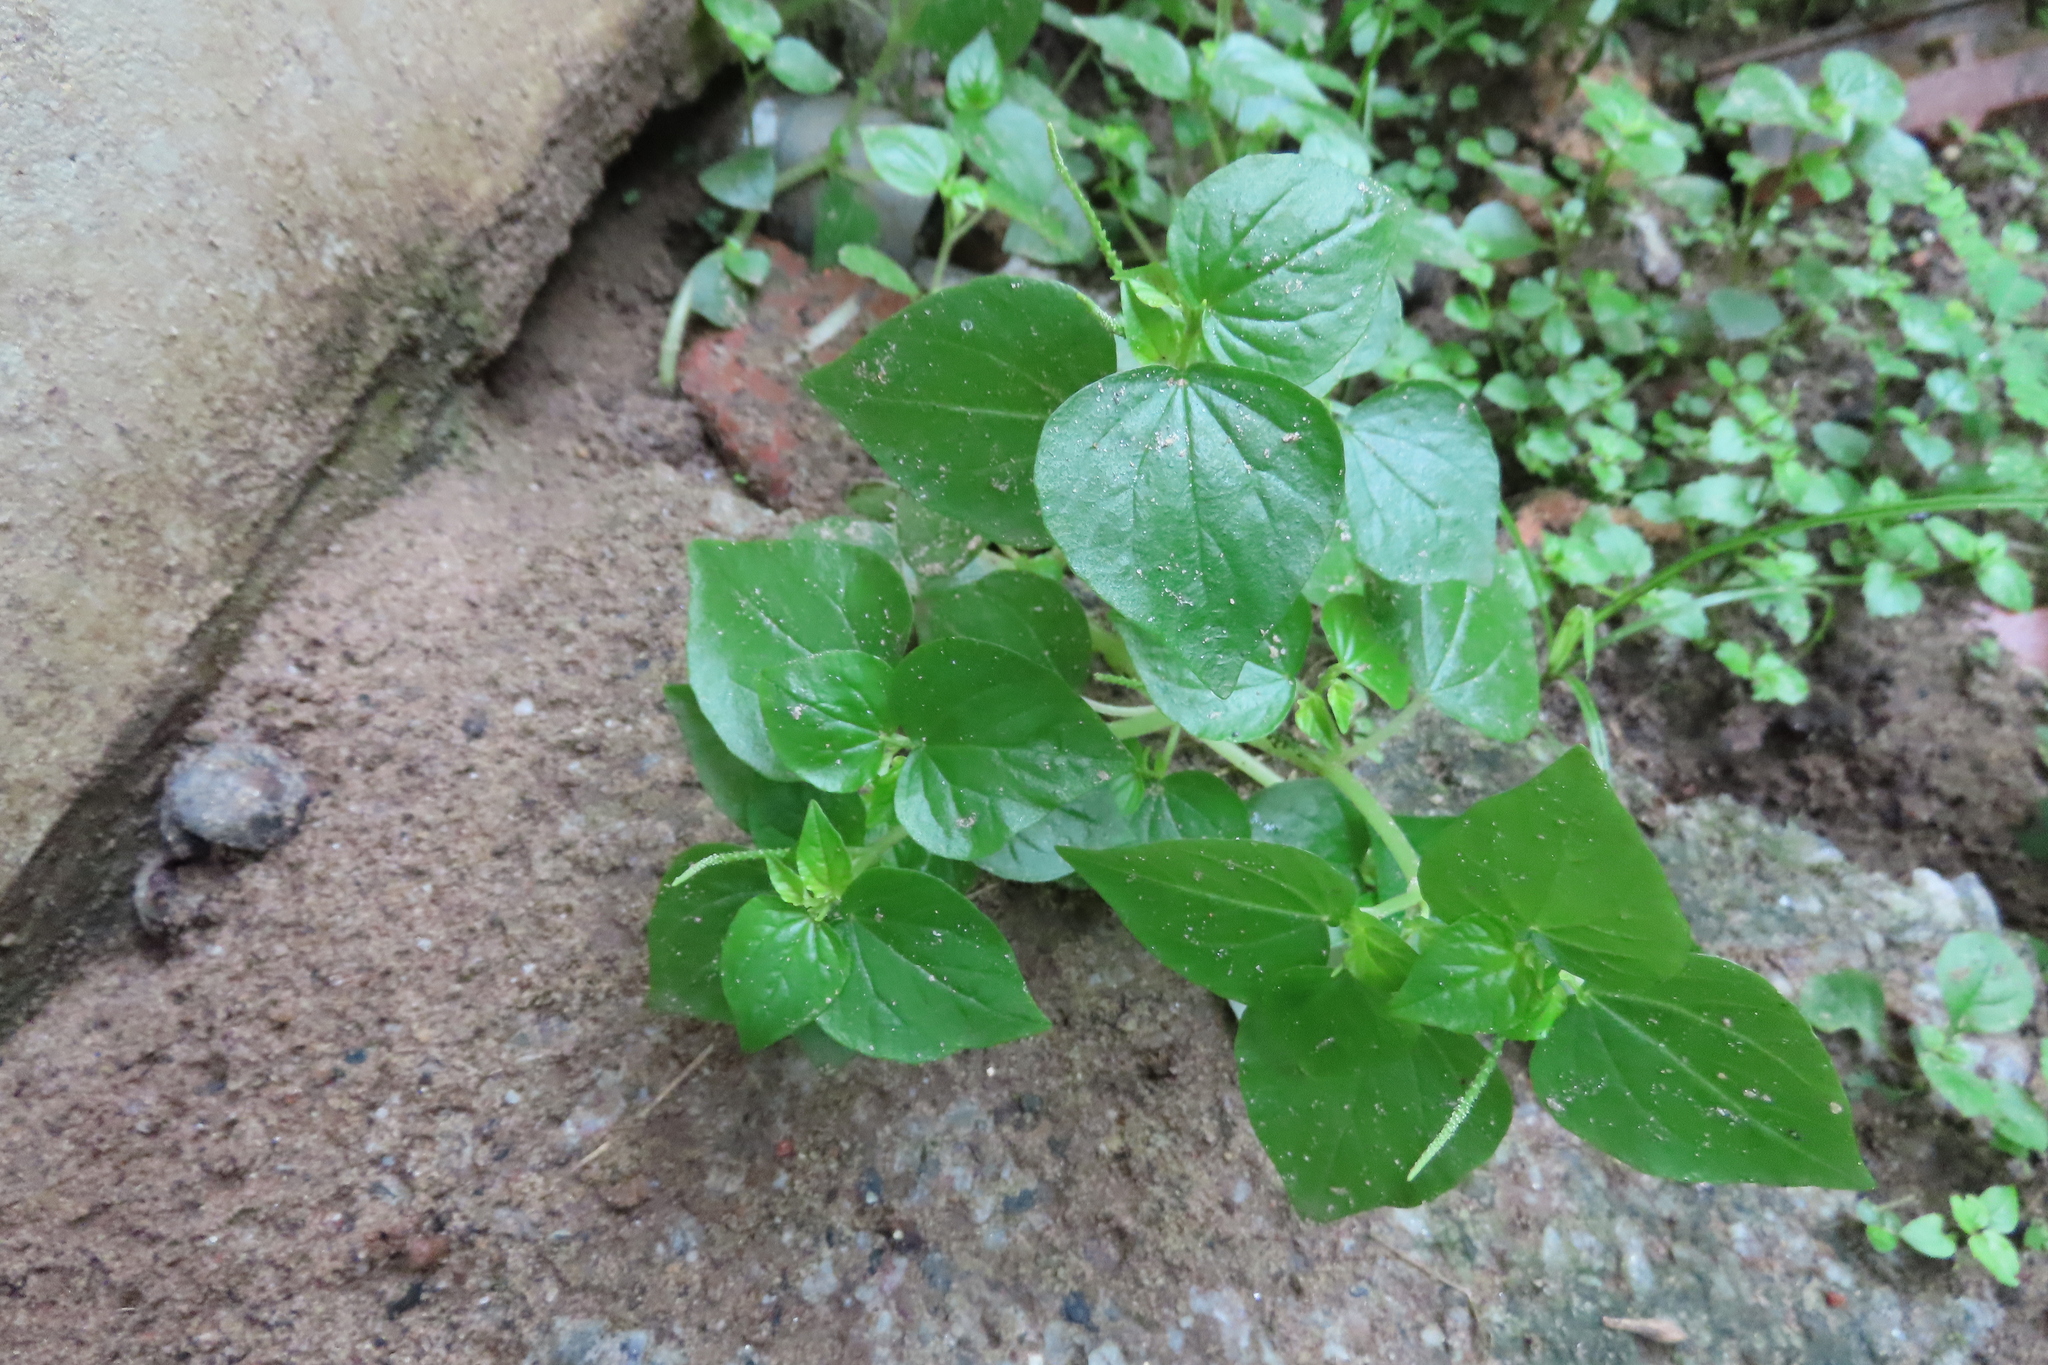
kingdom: Plantae
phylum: Tracheophyta
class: Magnoliopsida
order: Piperales
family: Piperaceae
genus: Peperomia
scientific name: Peperomia pellucida
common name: Man to man
